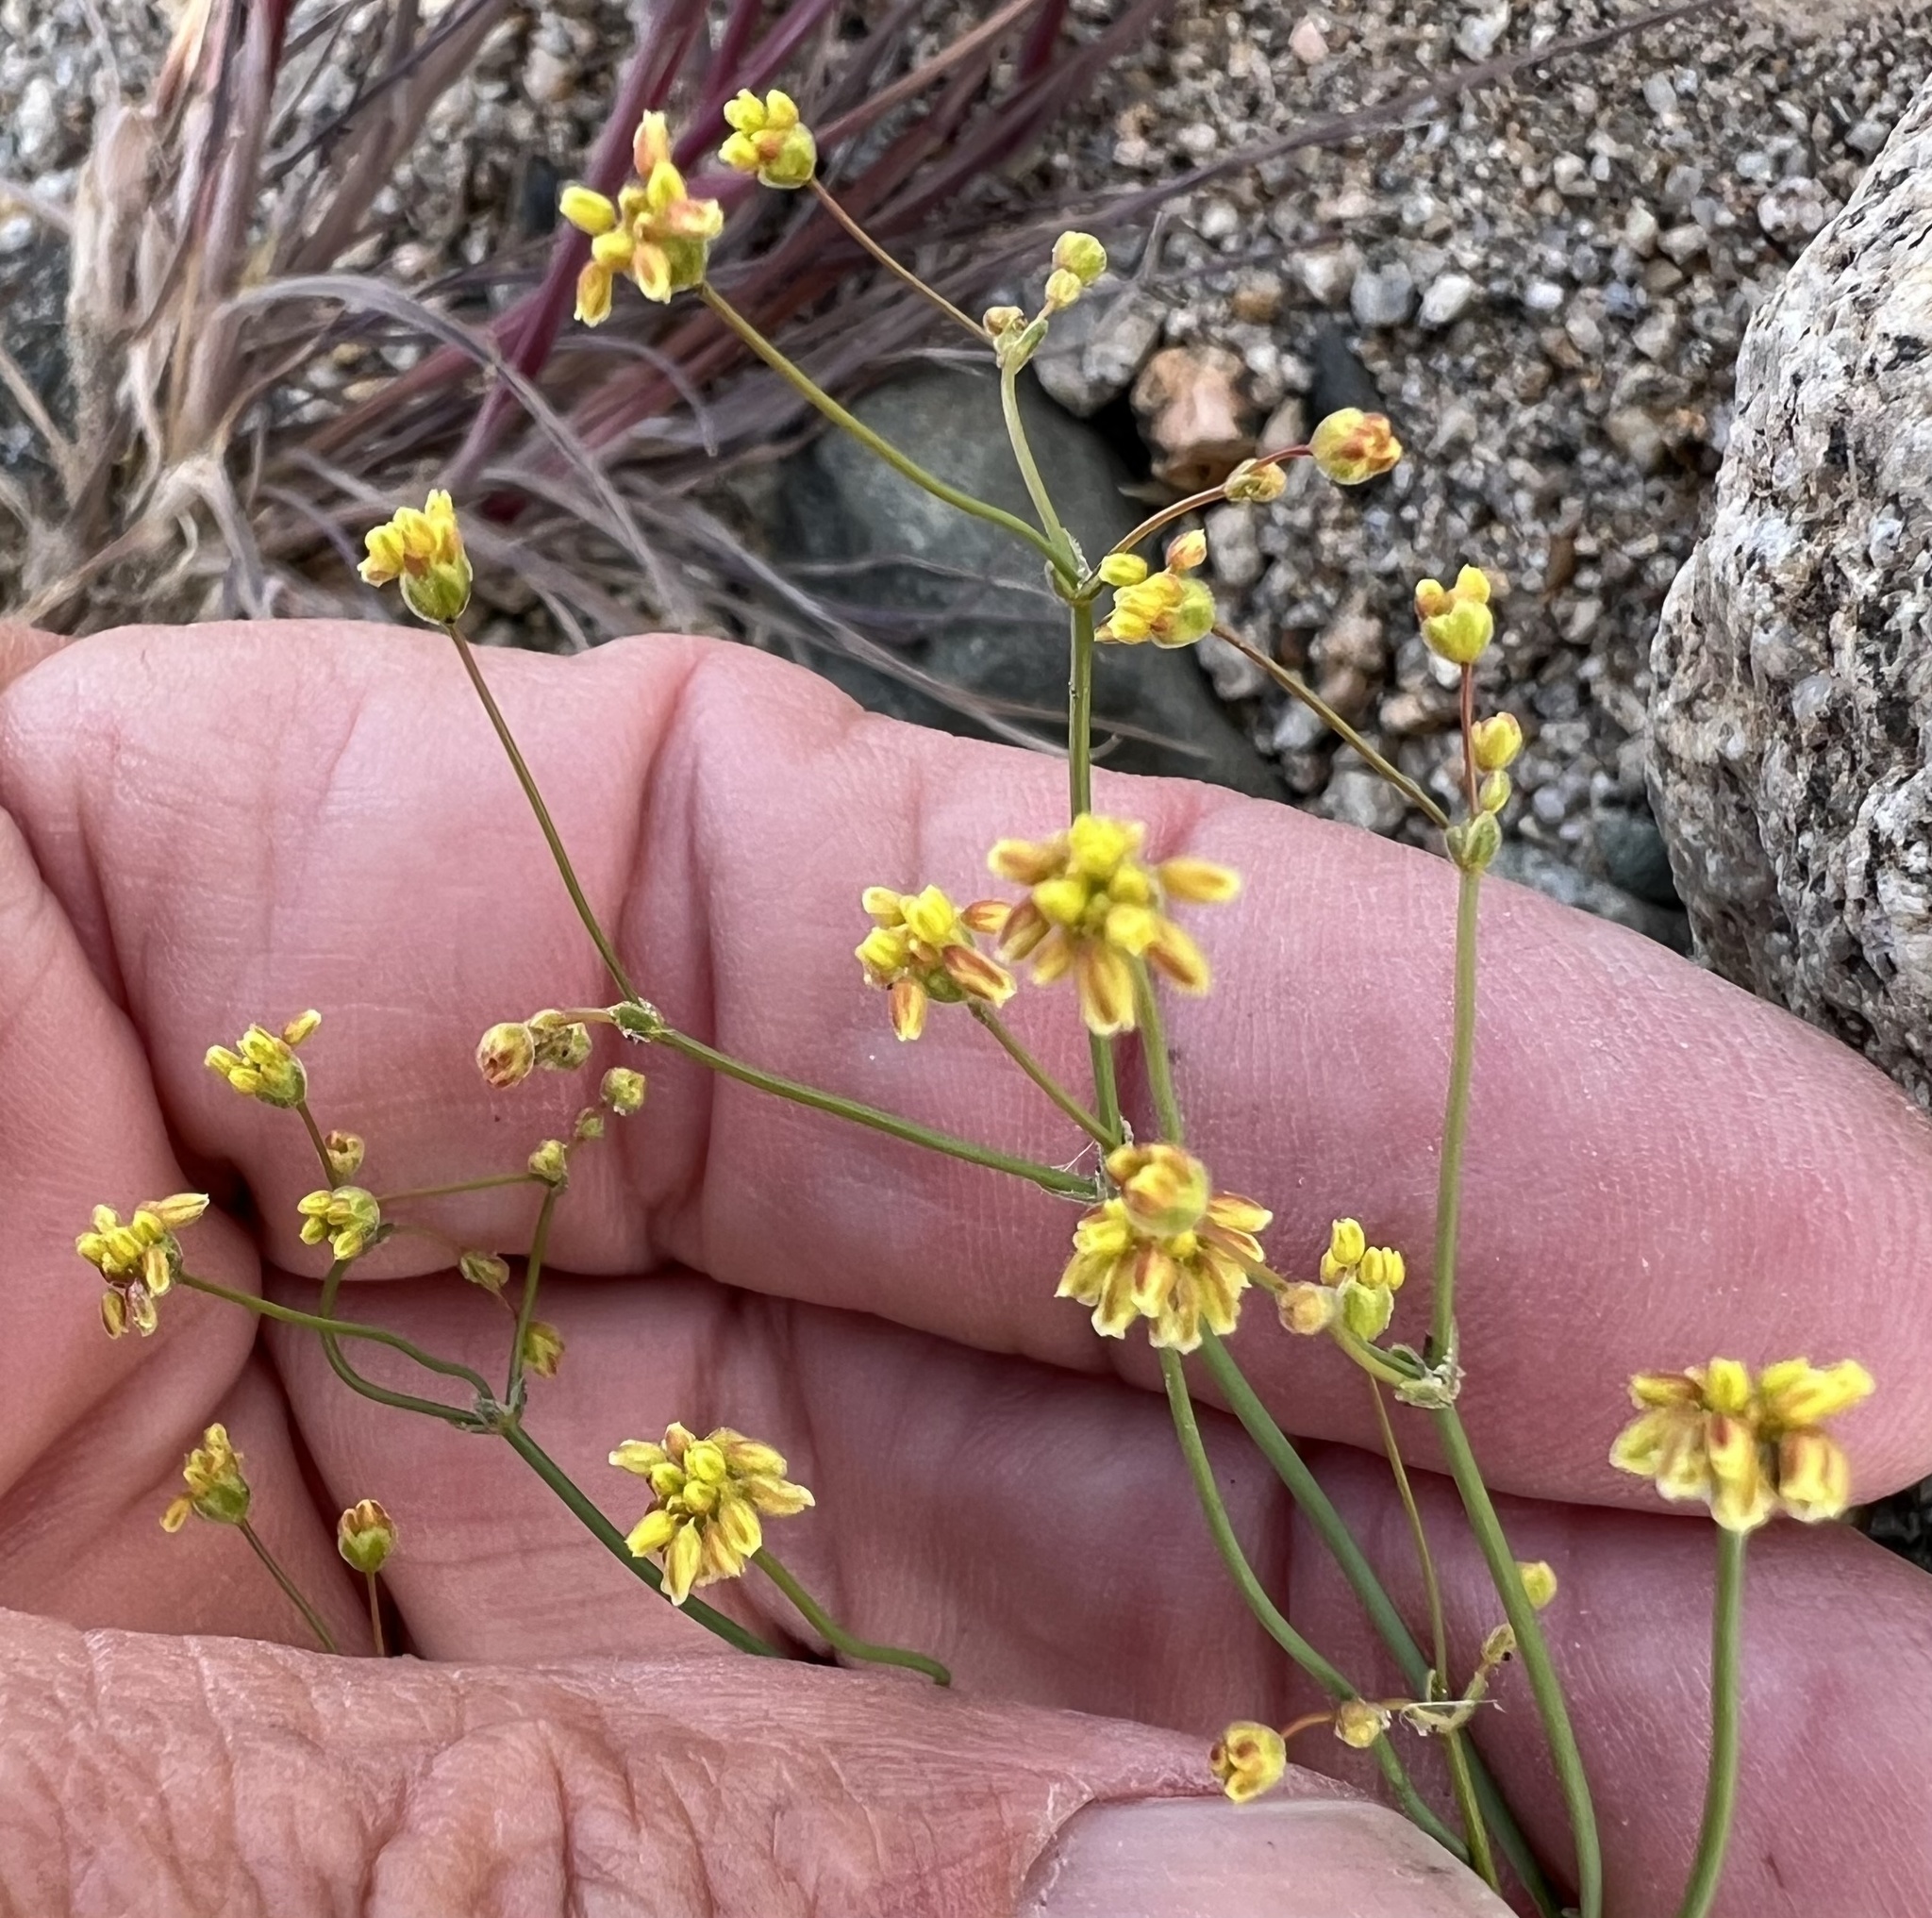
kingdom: Plantae
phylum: Tracheophyta
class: Magnoliopsida
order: Caryophyllales
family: Polygonaceae
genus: Eriogonum
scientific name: Eriogonum pusillum
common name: Yellow turbans
